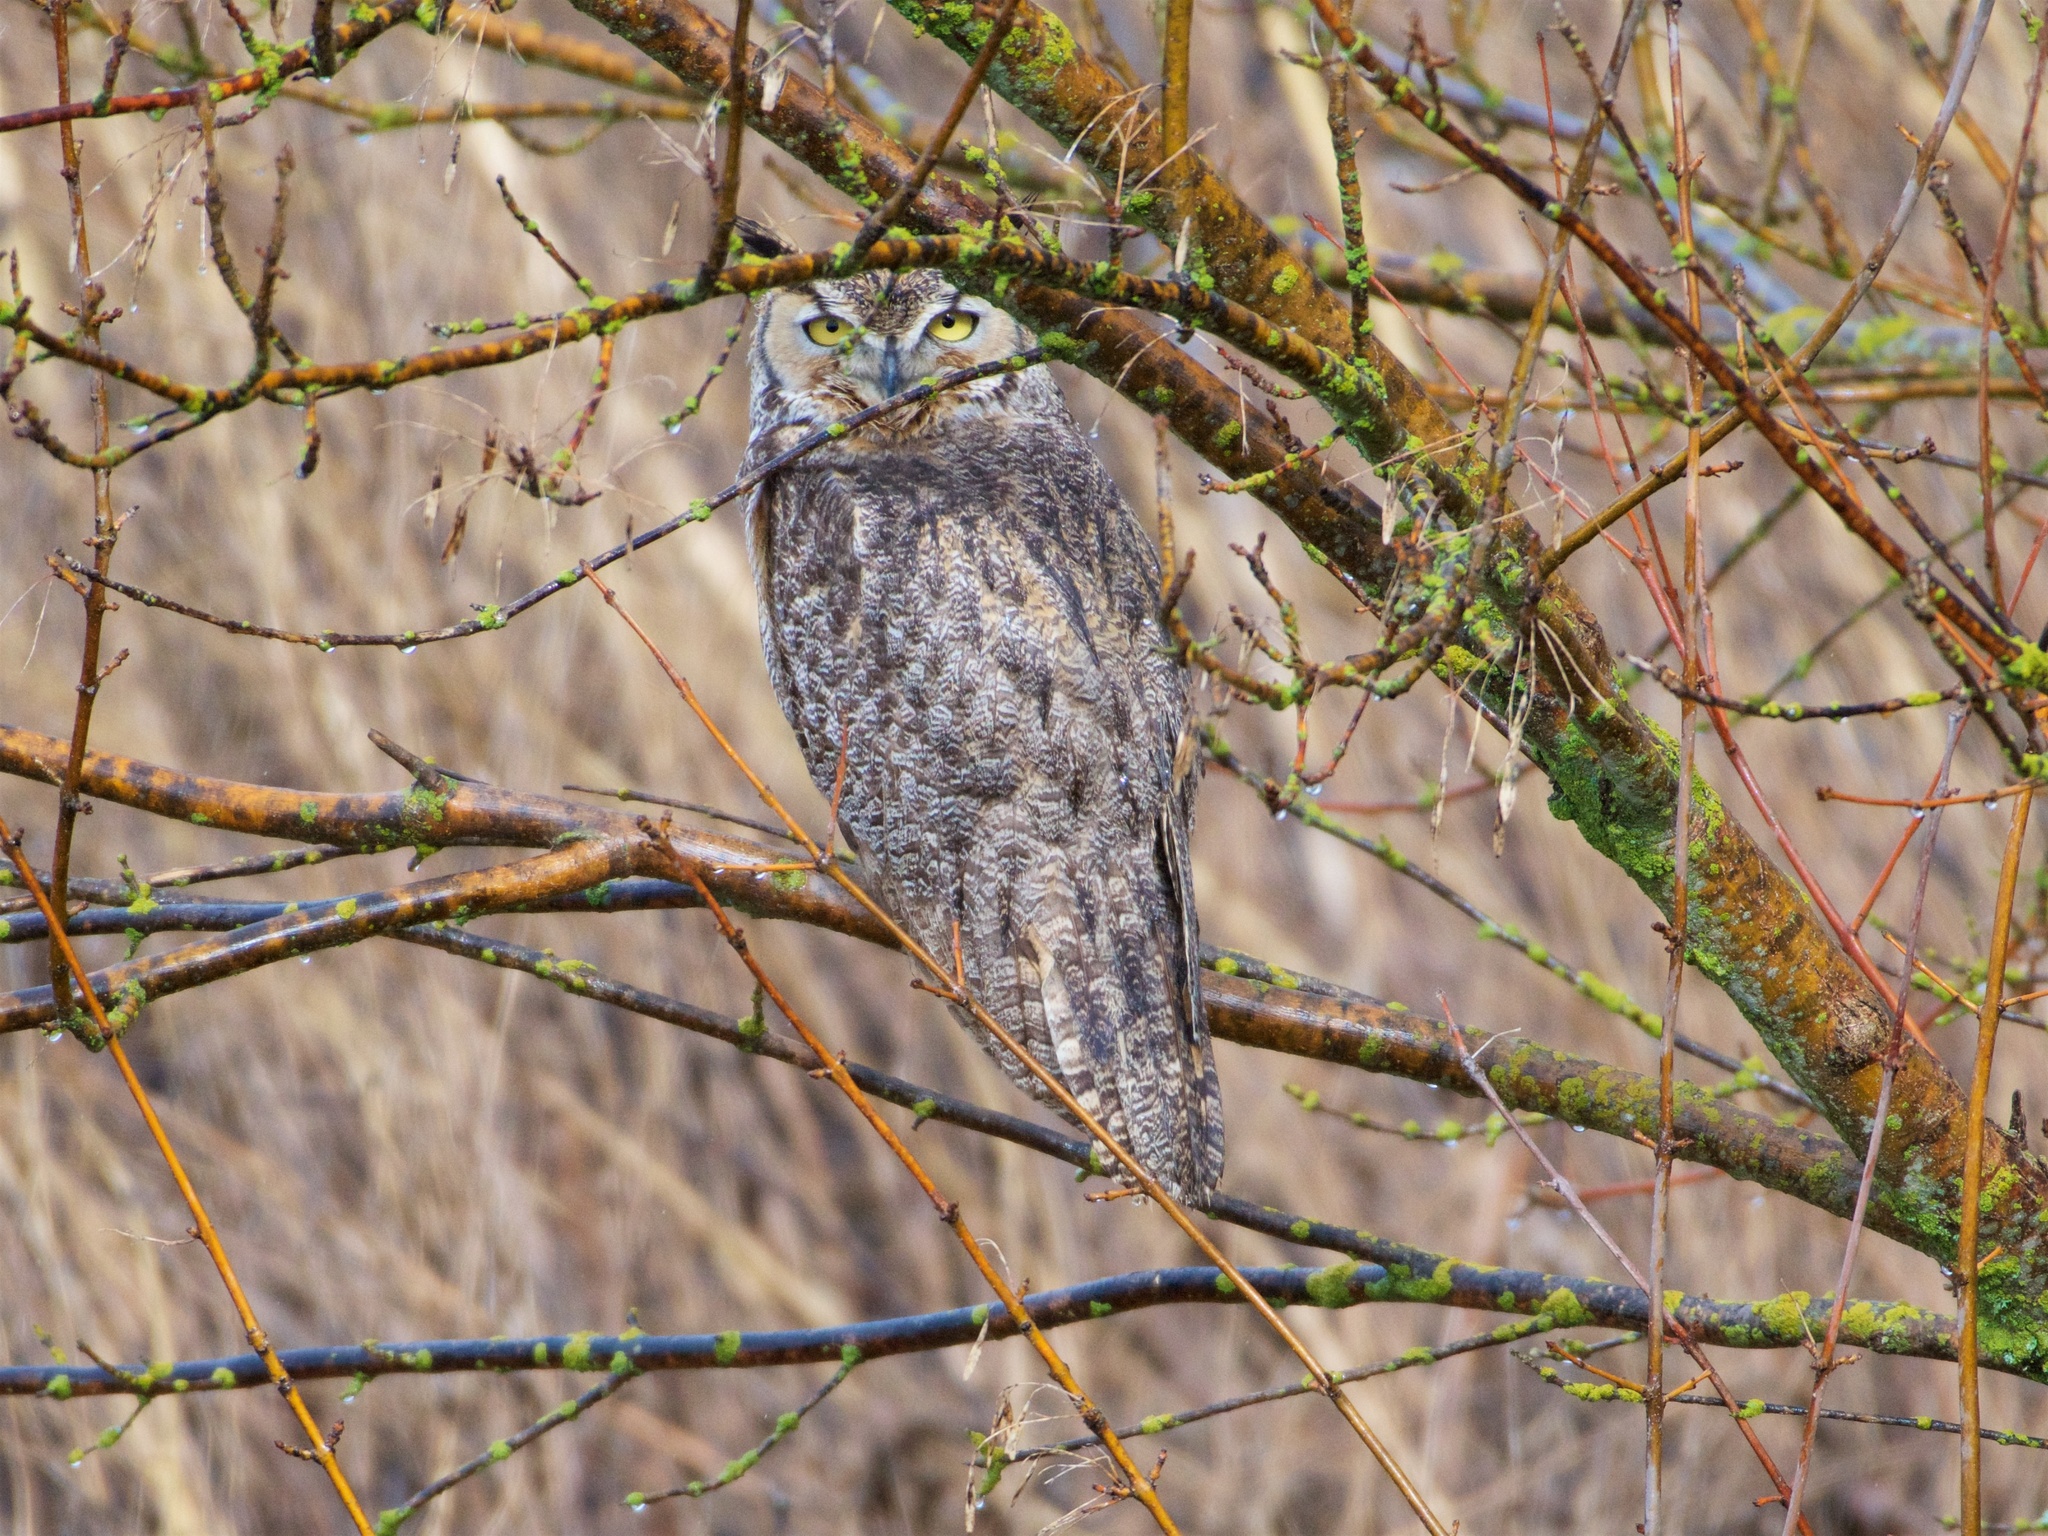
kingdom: Animalia
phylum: Chordata
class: Aves
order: Strigiformes
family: Strigidae
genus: Bubo
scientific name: Bubo virginianus
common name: Great horned owl
